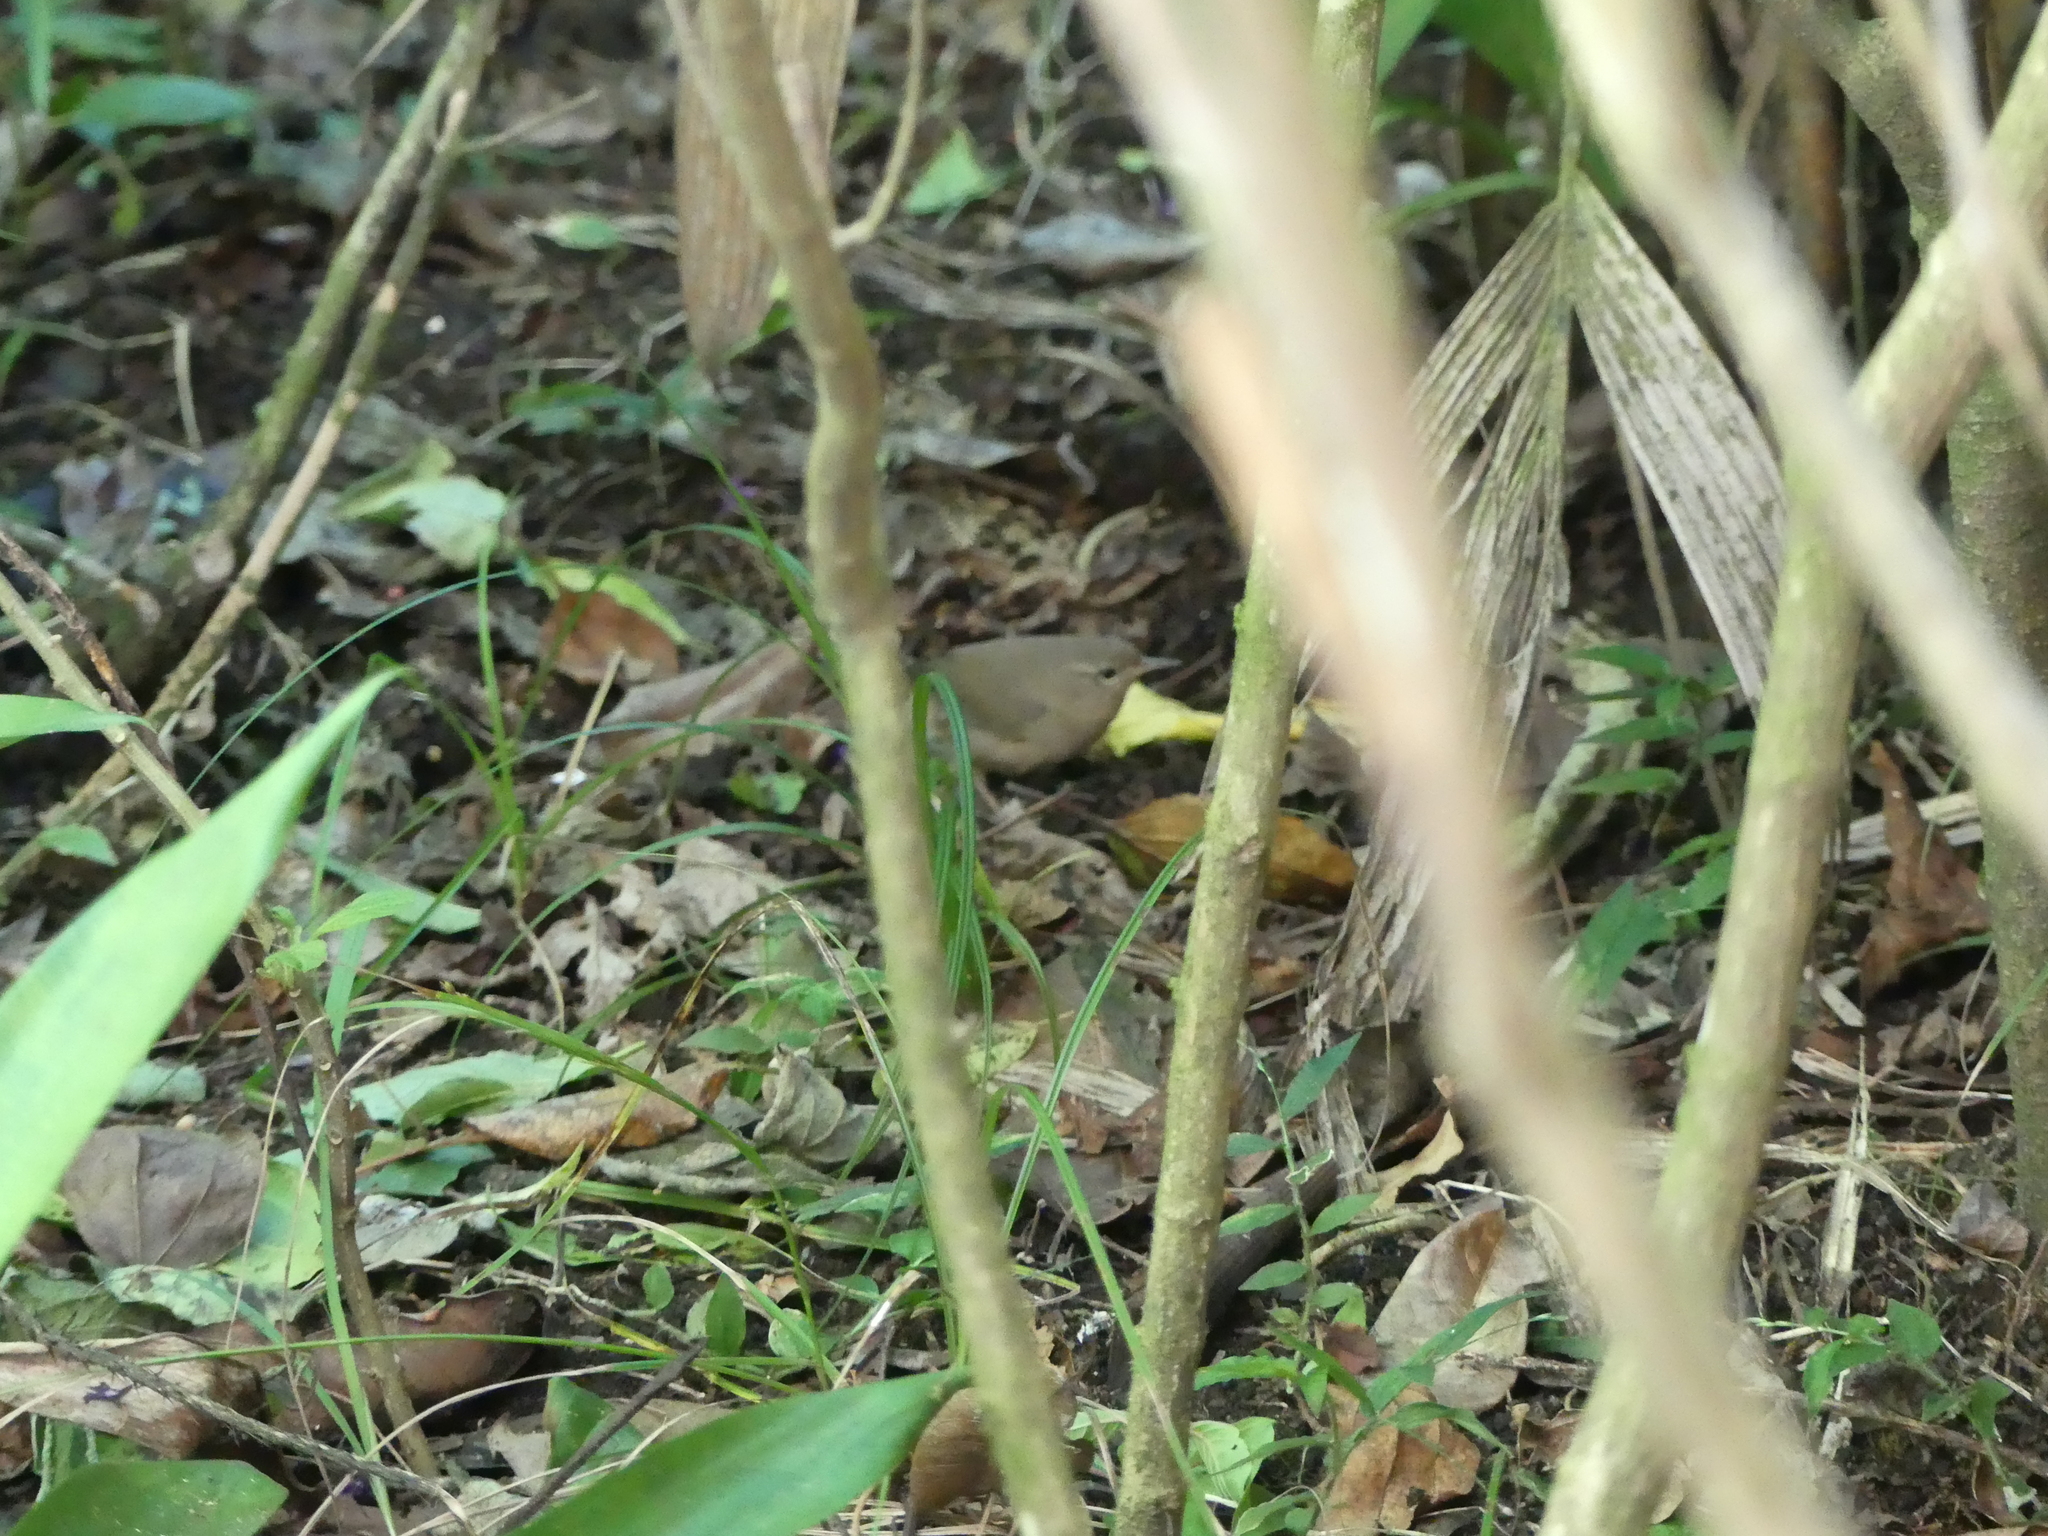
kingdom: Animalia
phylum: Chordata
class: Aves
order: Passeriformes
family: Troglodytidae
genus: Troglodytes
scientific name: Troglodytes aedon
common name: House wren
